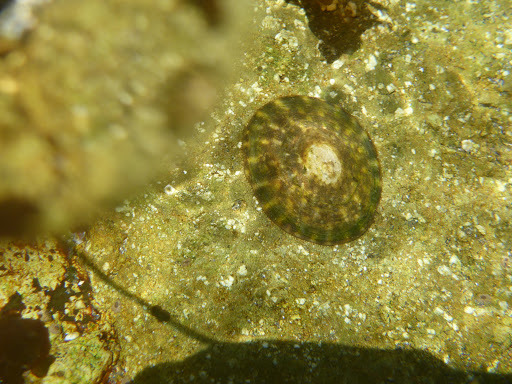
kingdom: Animalia
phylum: Mollusca
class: Gastropoda
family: Lottiidae
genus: Lottia
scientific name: Lottia pelta
